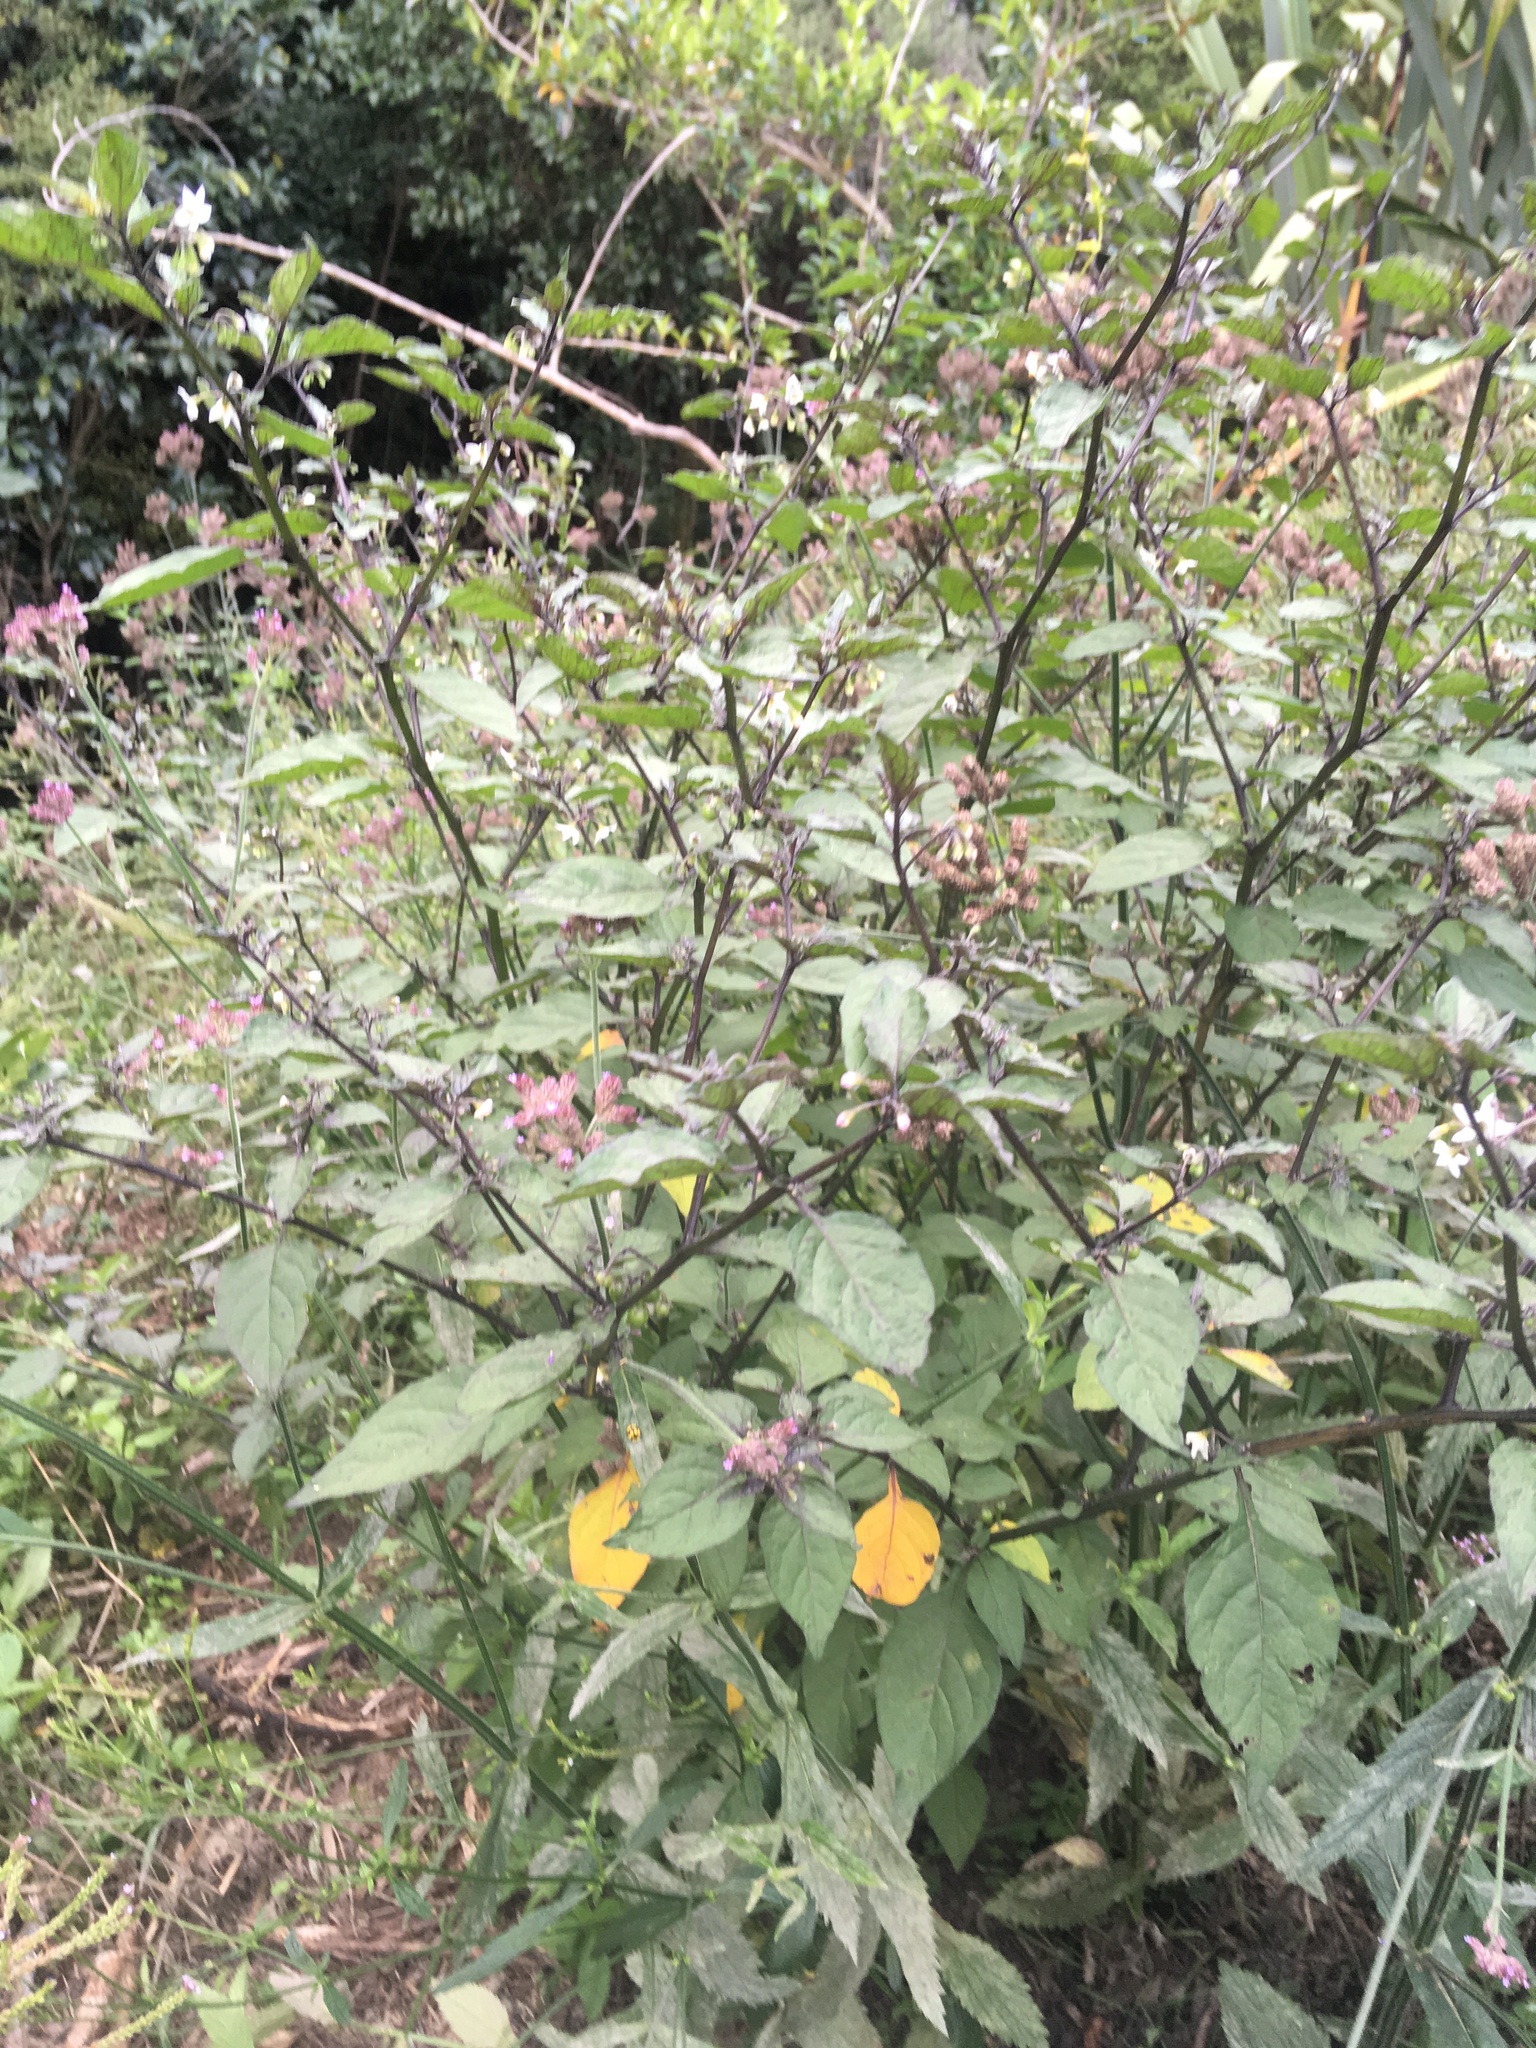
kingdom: Animalia
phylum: Arthropoda
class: Insecta
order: Coleoptera
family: Coccinellidae
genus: Illeis
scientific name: Illeis galbula
